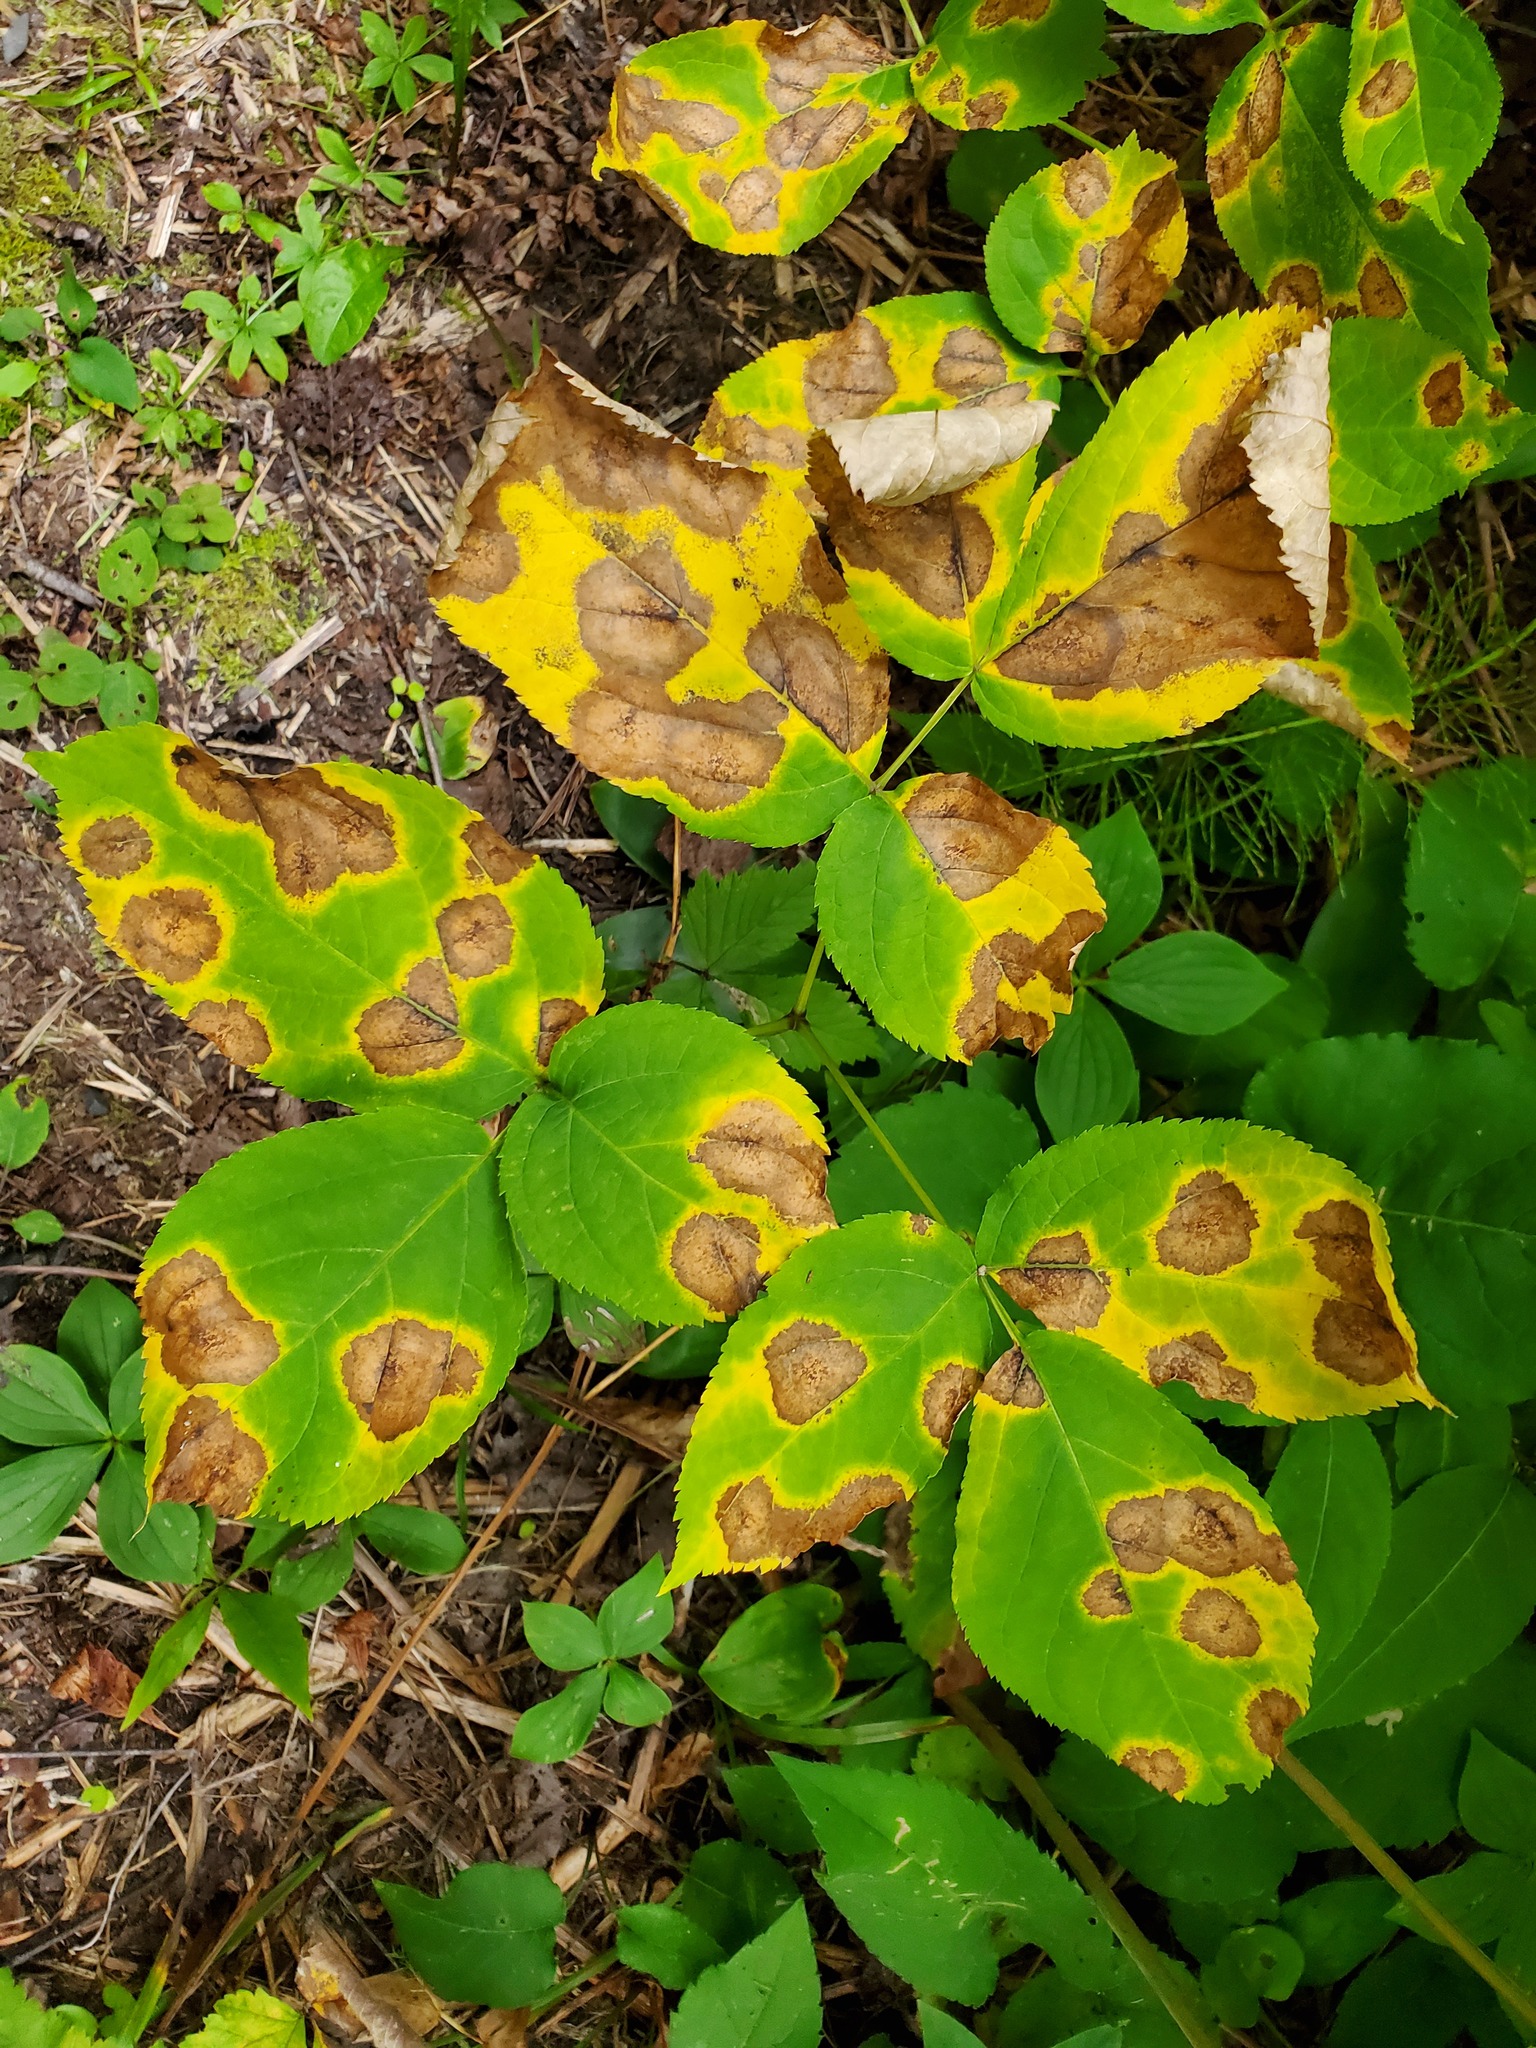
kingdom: Plantae
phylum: Tracheophyta
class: Magnoliopsida
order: Apiales
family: Araliaceae
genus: Aralia
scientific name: Aralia nudicaulis
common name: Wild sarsaparilla
